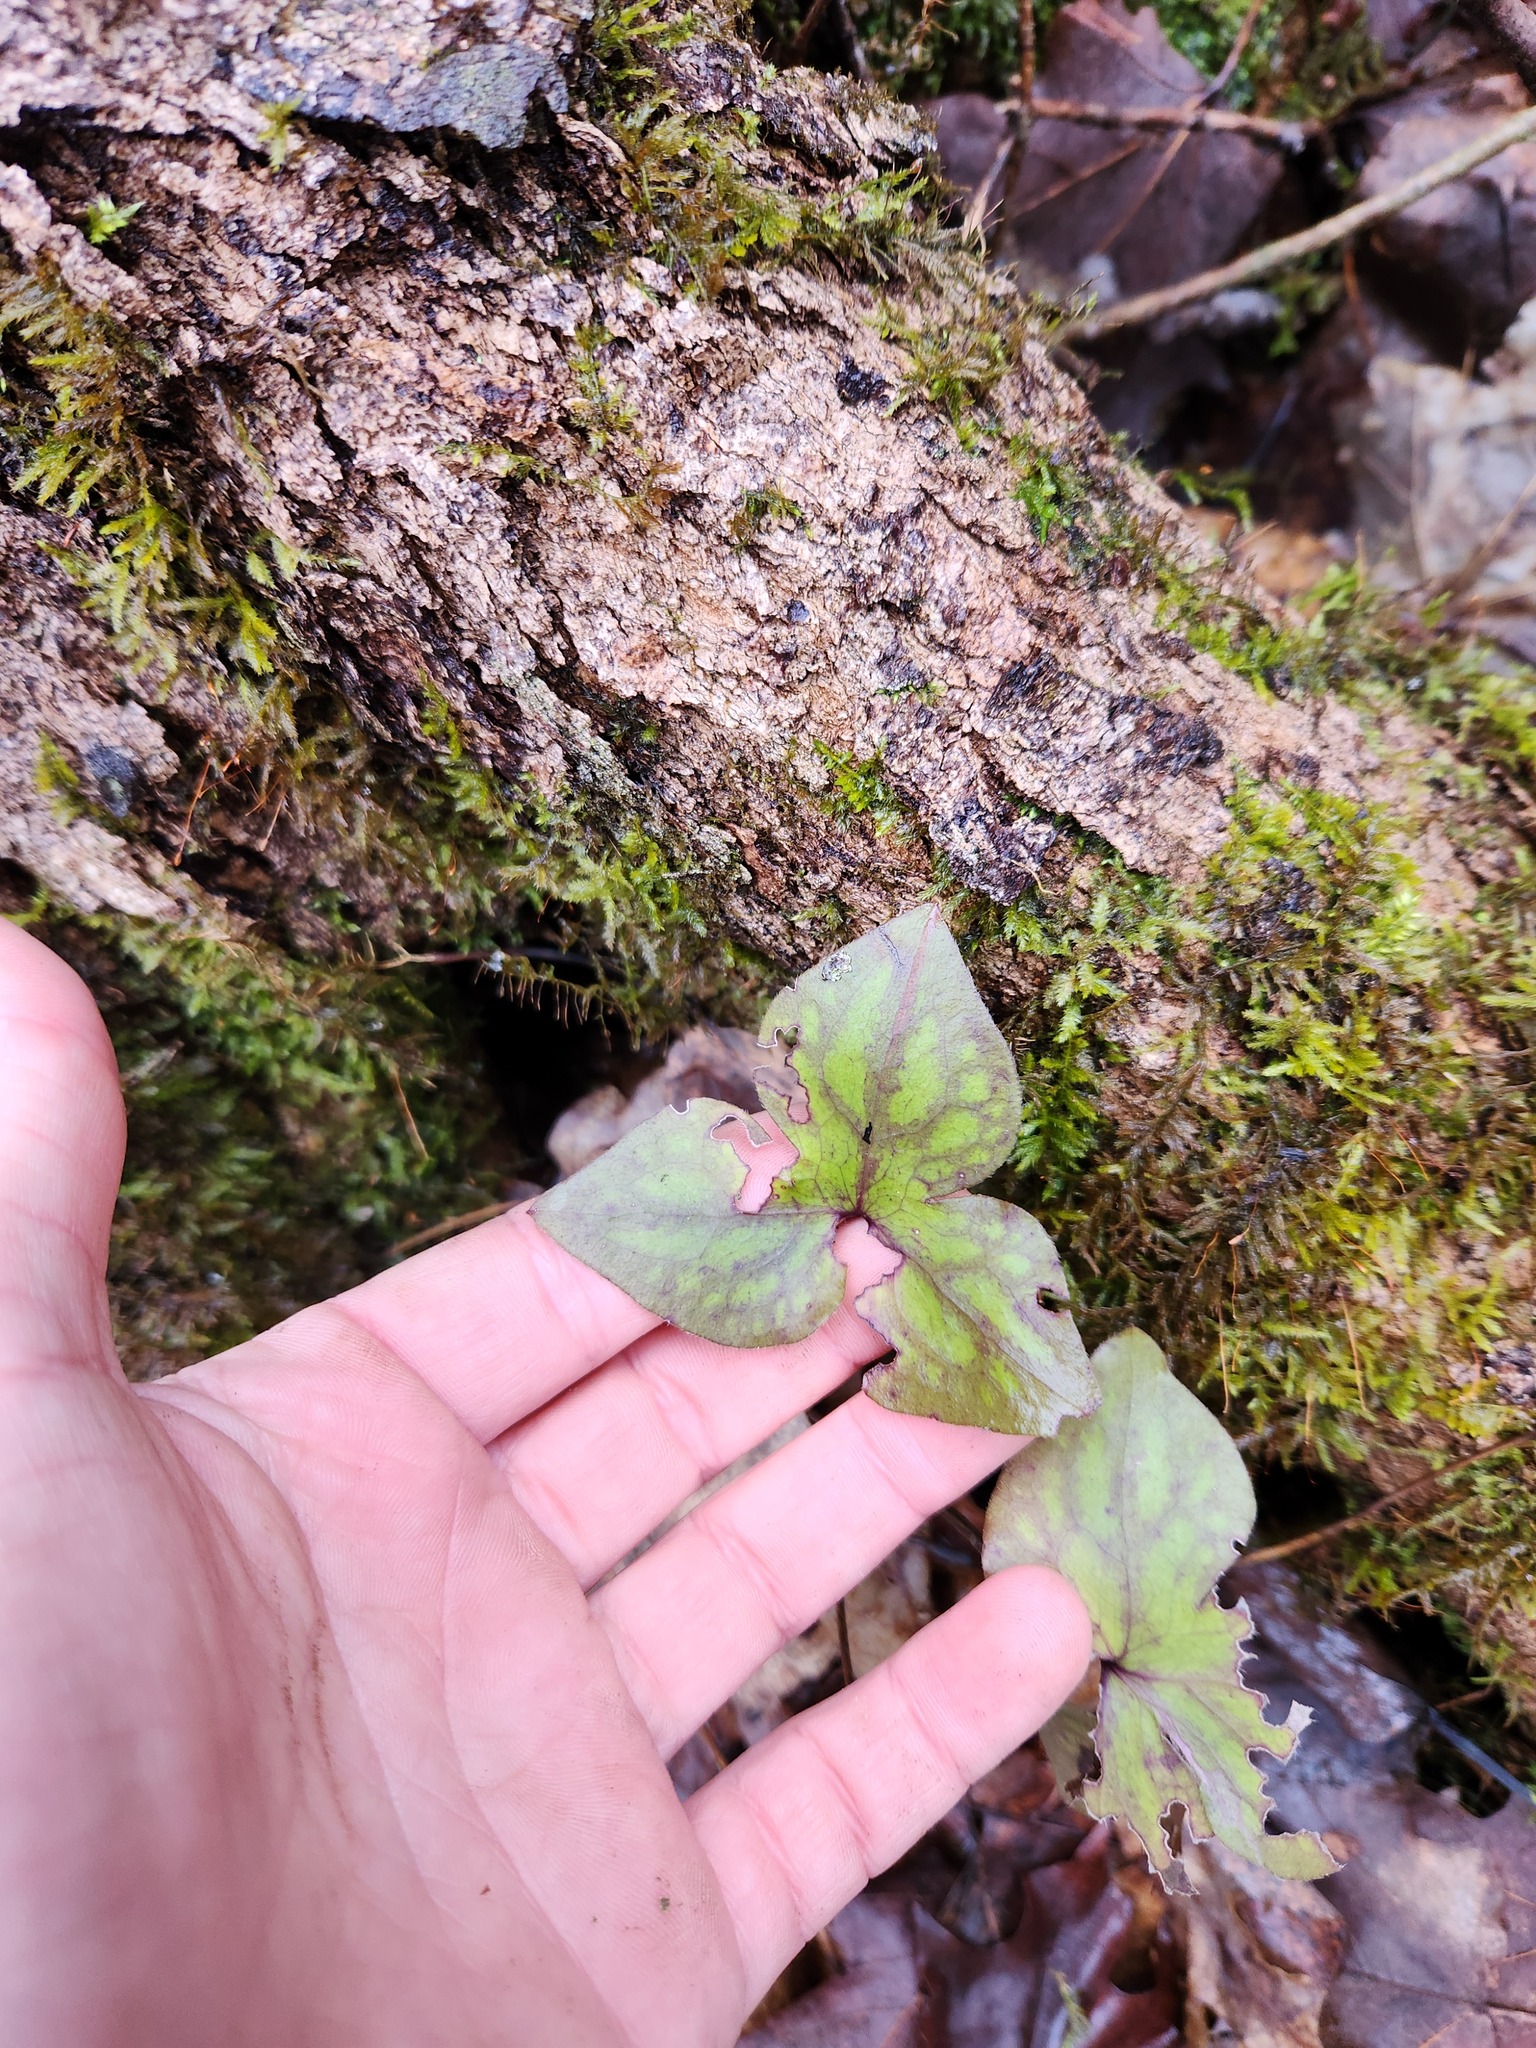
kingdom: Plantae
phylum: Tracheophyta
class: Magnoliopsida
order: Ranunculales
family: Ranunculaceae
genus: Hepatica
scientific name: Hepatica acutiloba
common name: Sharp-lobed hepatica
